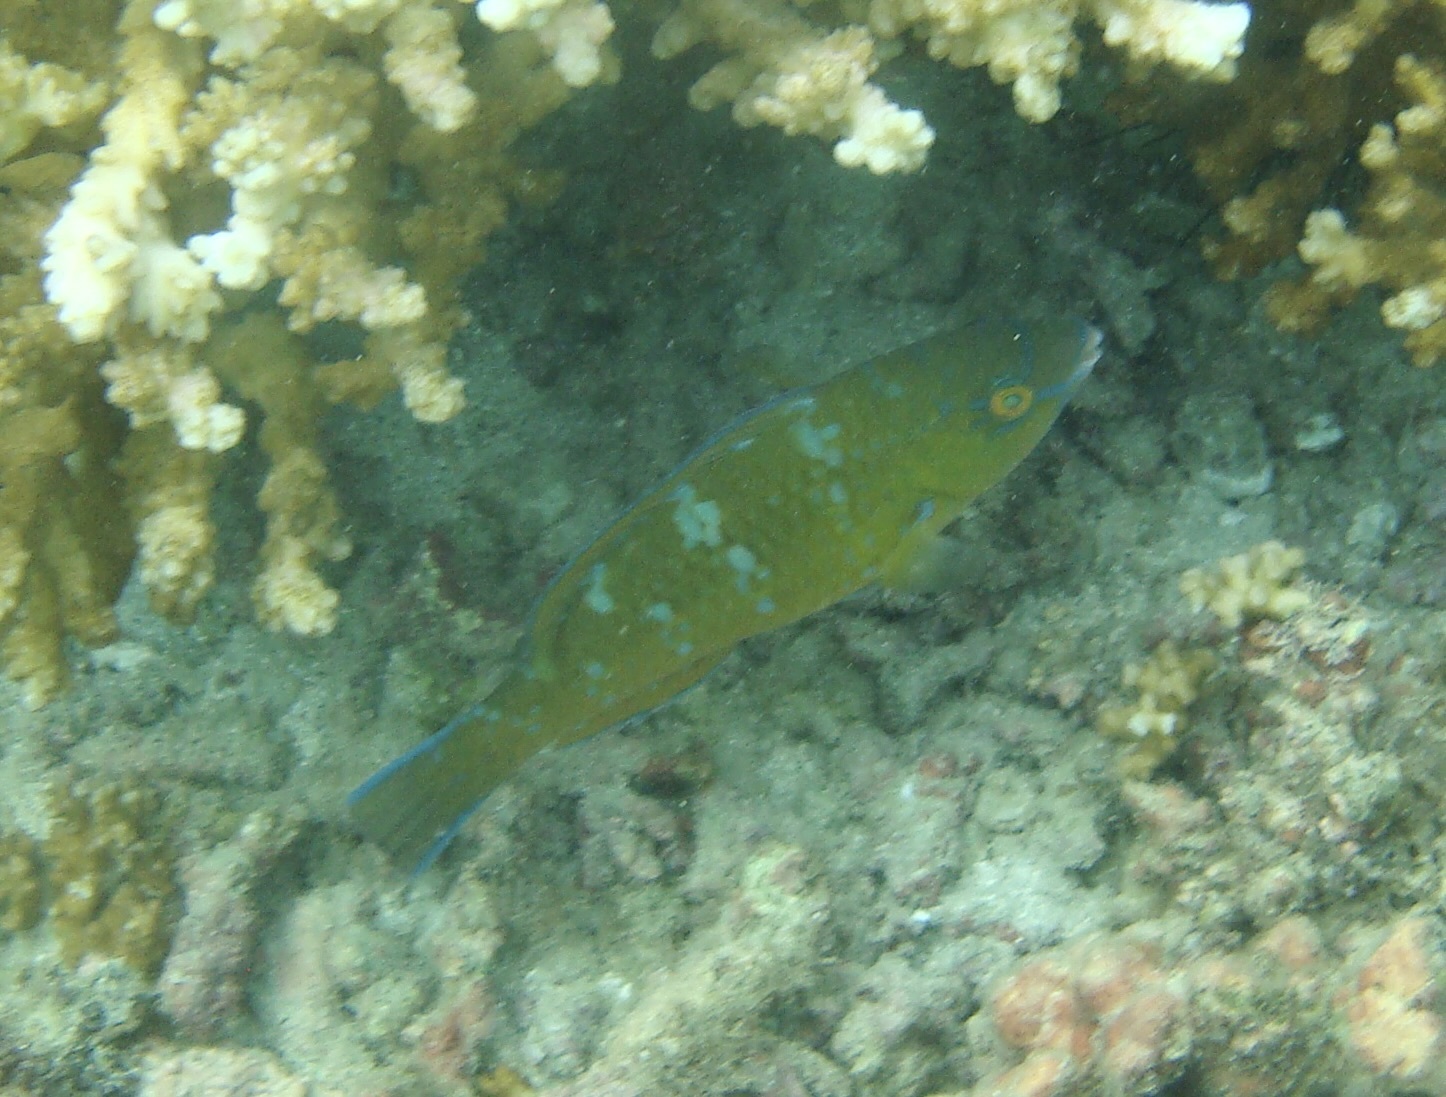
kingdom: Animalia
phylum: Chordata
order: Perciformes
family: Scaridae
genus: Scarus
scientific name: Scarus ghobban
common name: Blue-barred parrotfish
